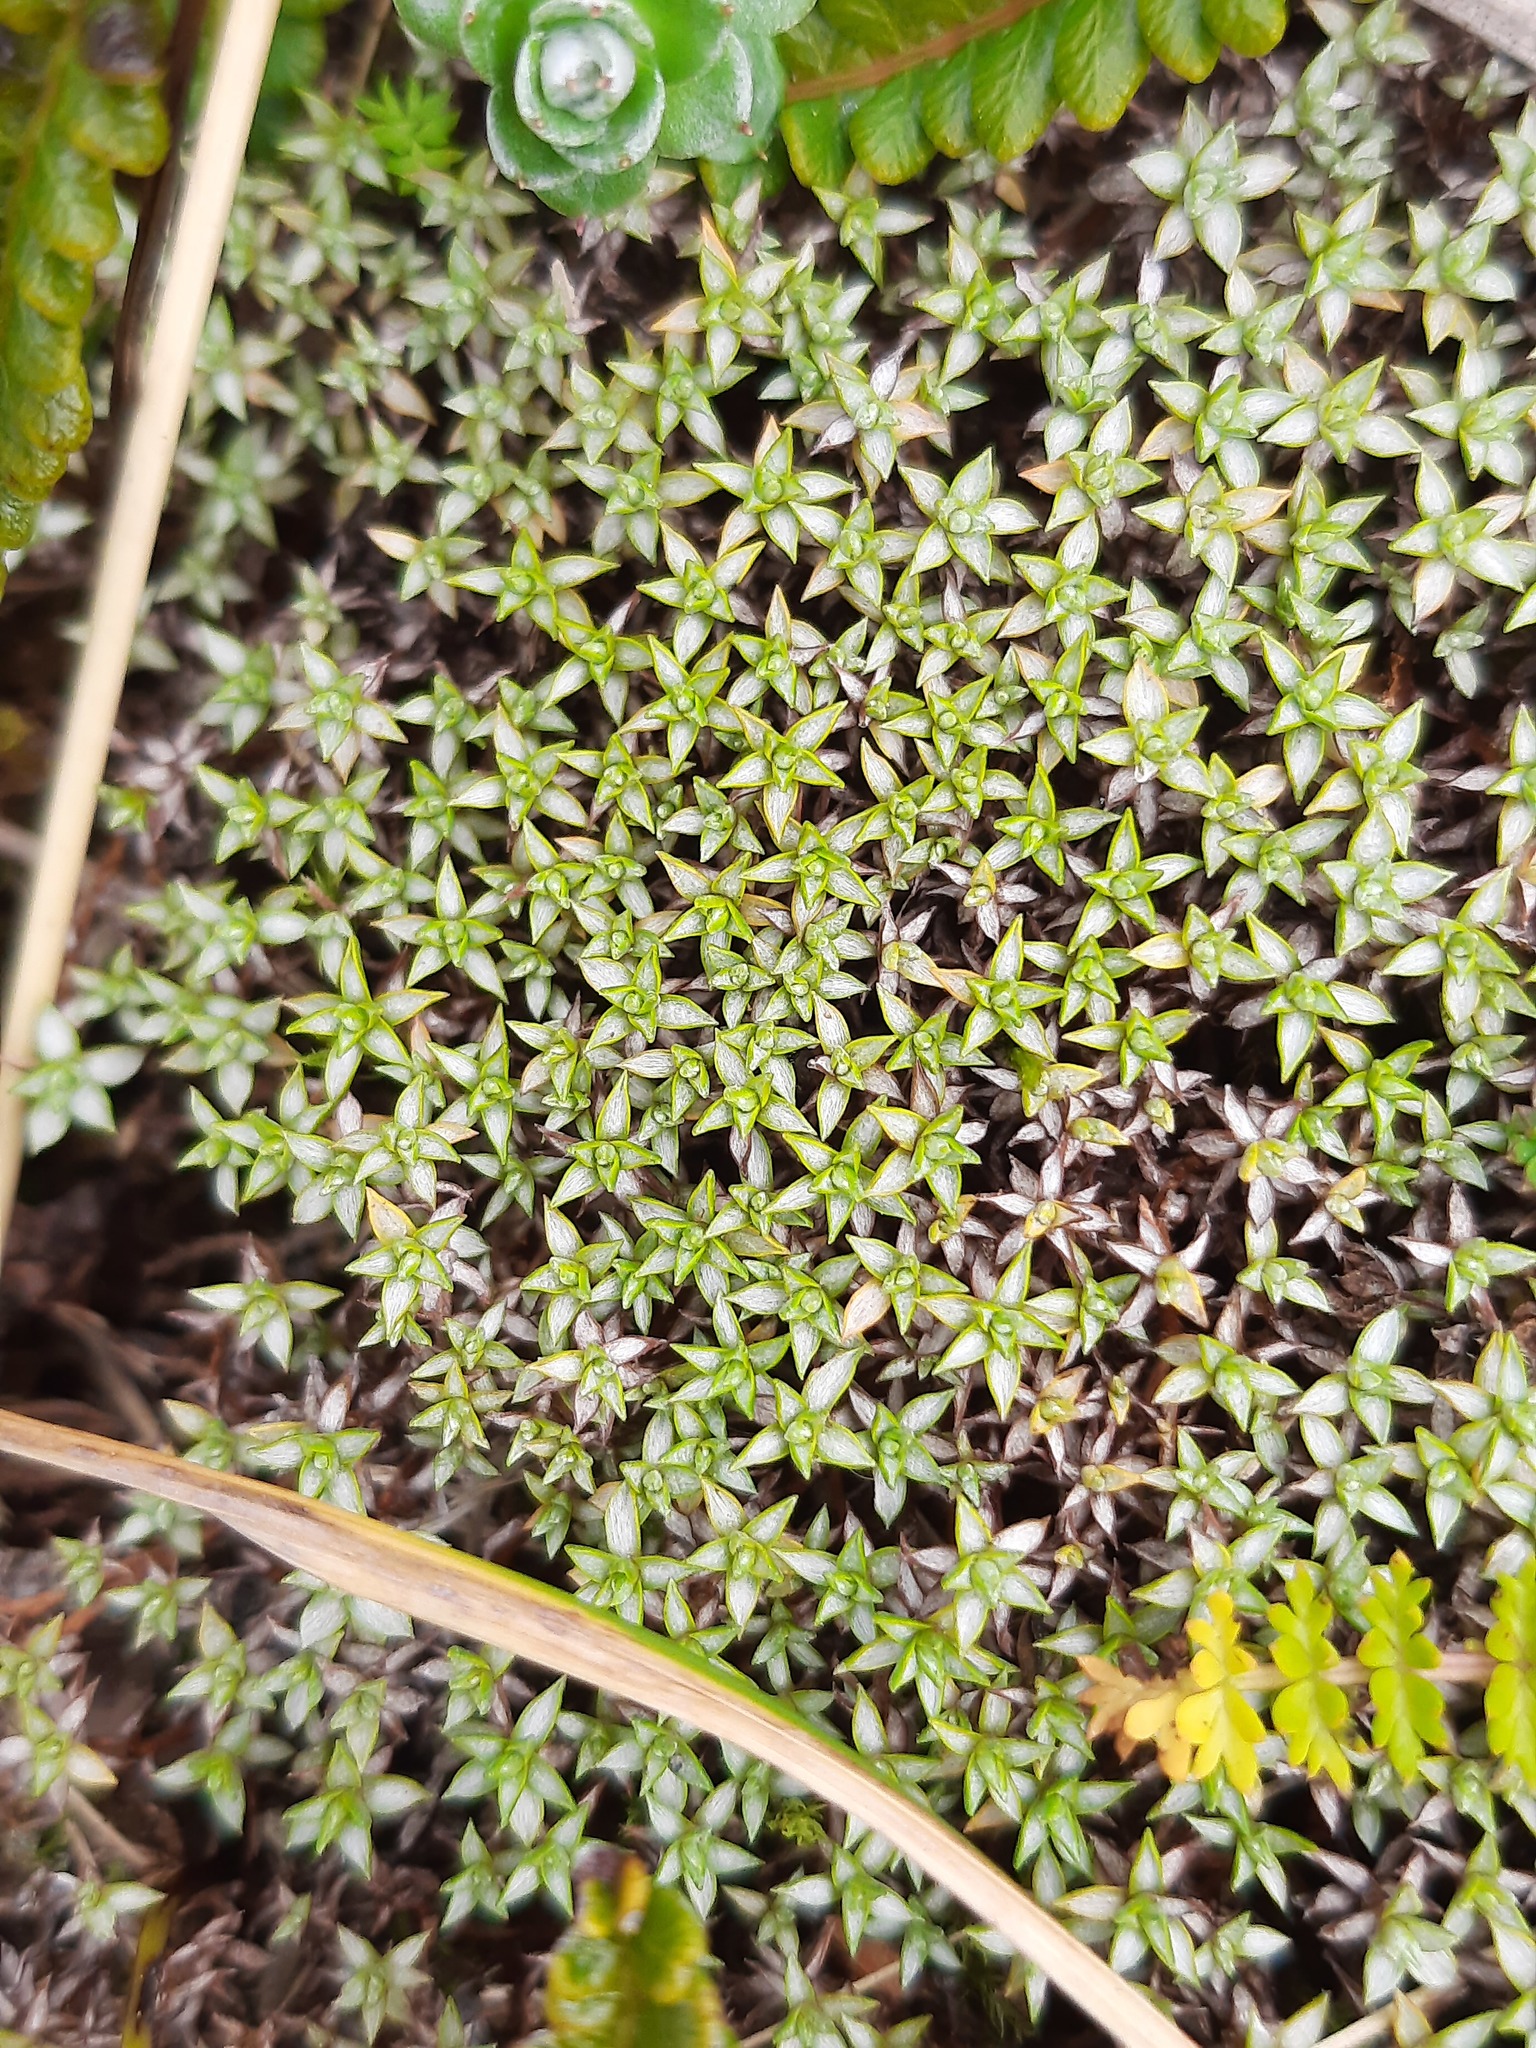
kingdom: Plantae
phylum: Tracheophyta
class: Magnoliopsida
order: Asterales
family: Asteraceae
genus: Raoulia
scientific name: Raoulia tenuicaulis
